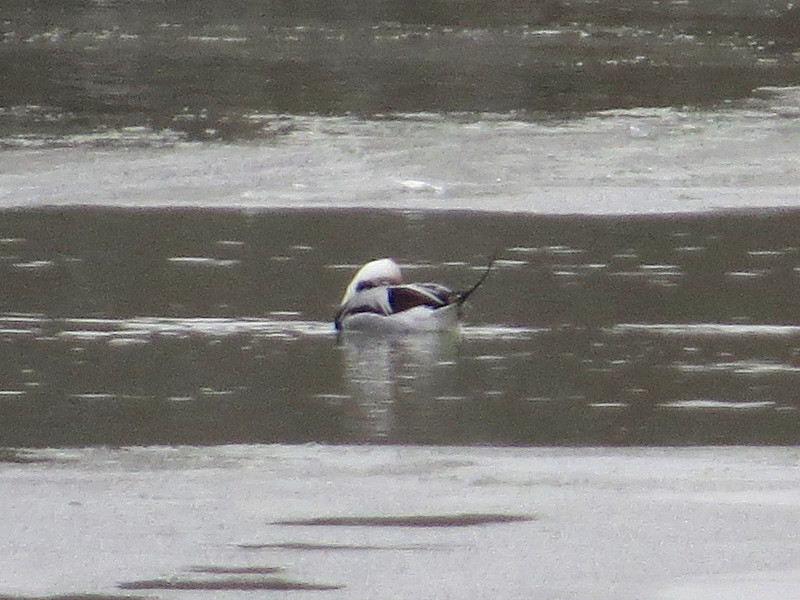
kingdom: Animalia
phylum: Chordata
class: Aves
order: Anseriformes
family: Anatidae
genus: Clangula
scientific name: Clangula hyemalis
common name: Long-tailed duck
